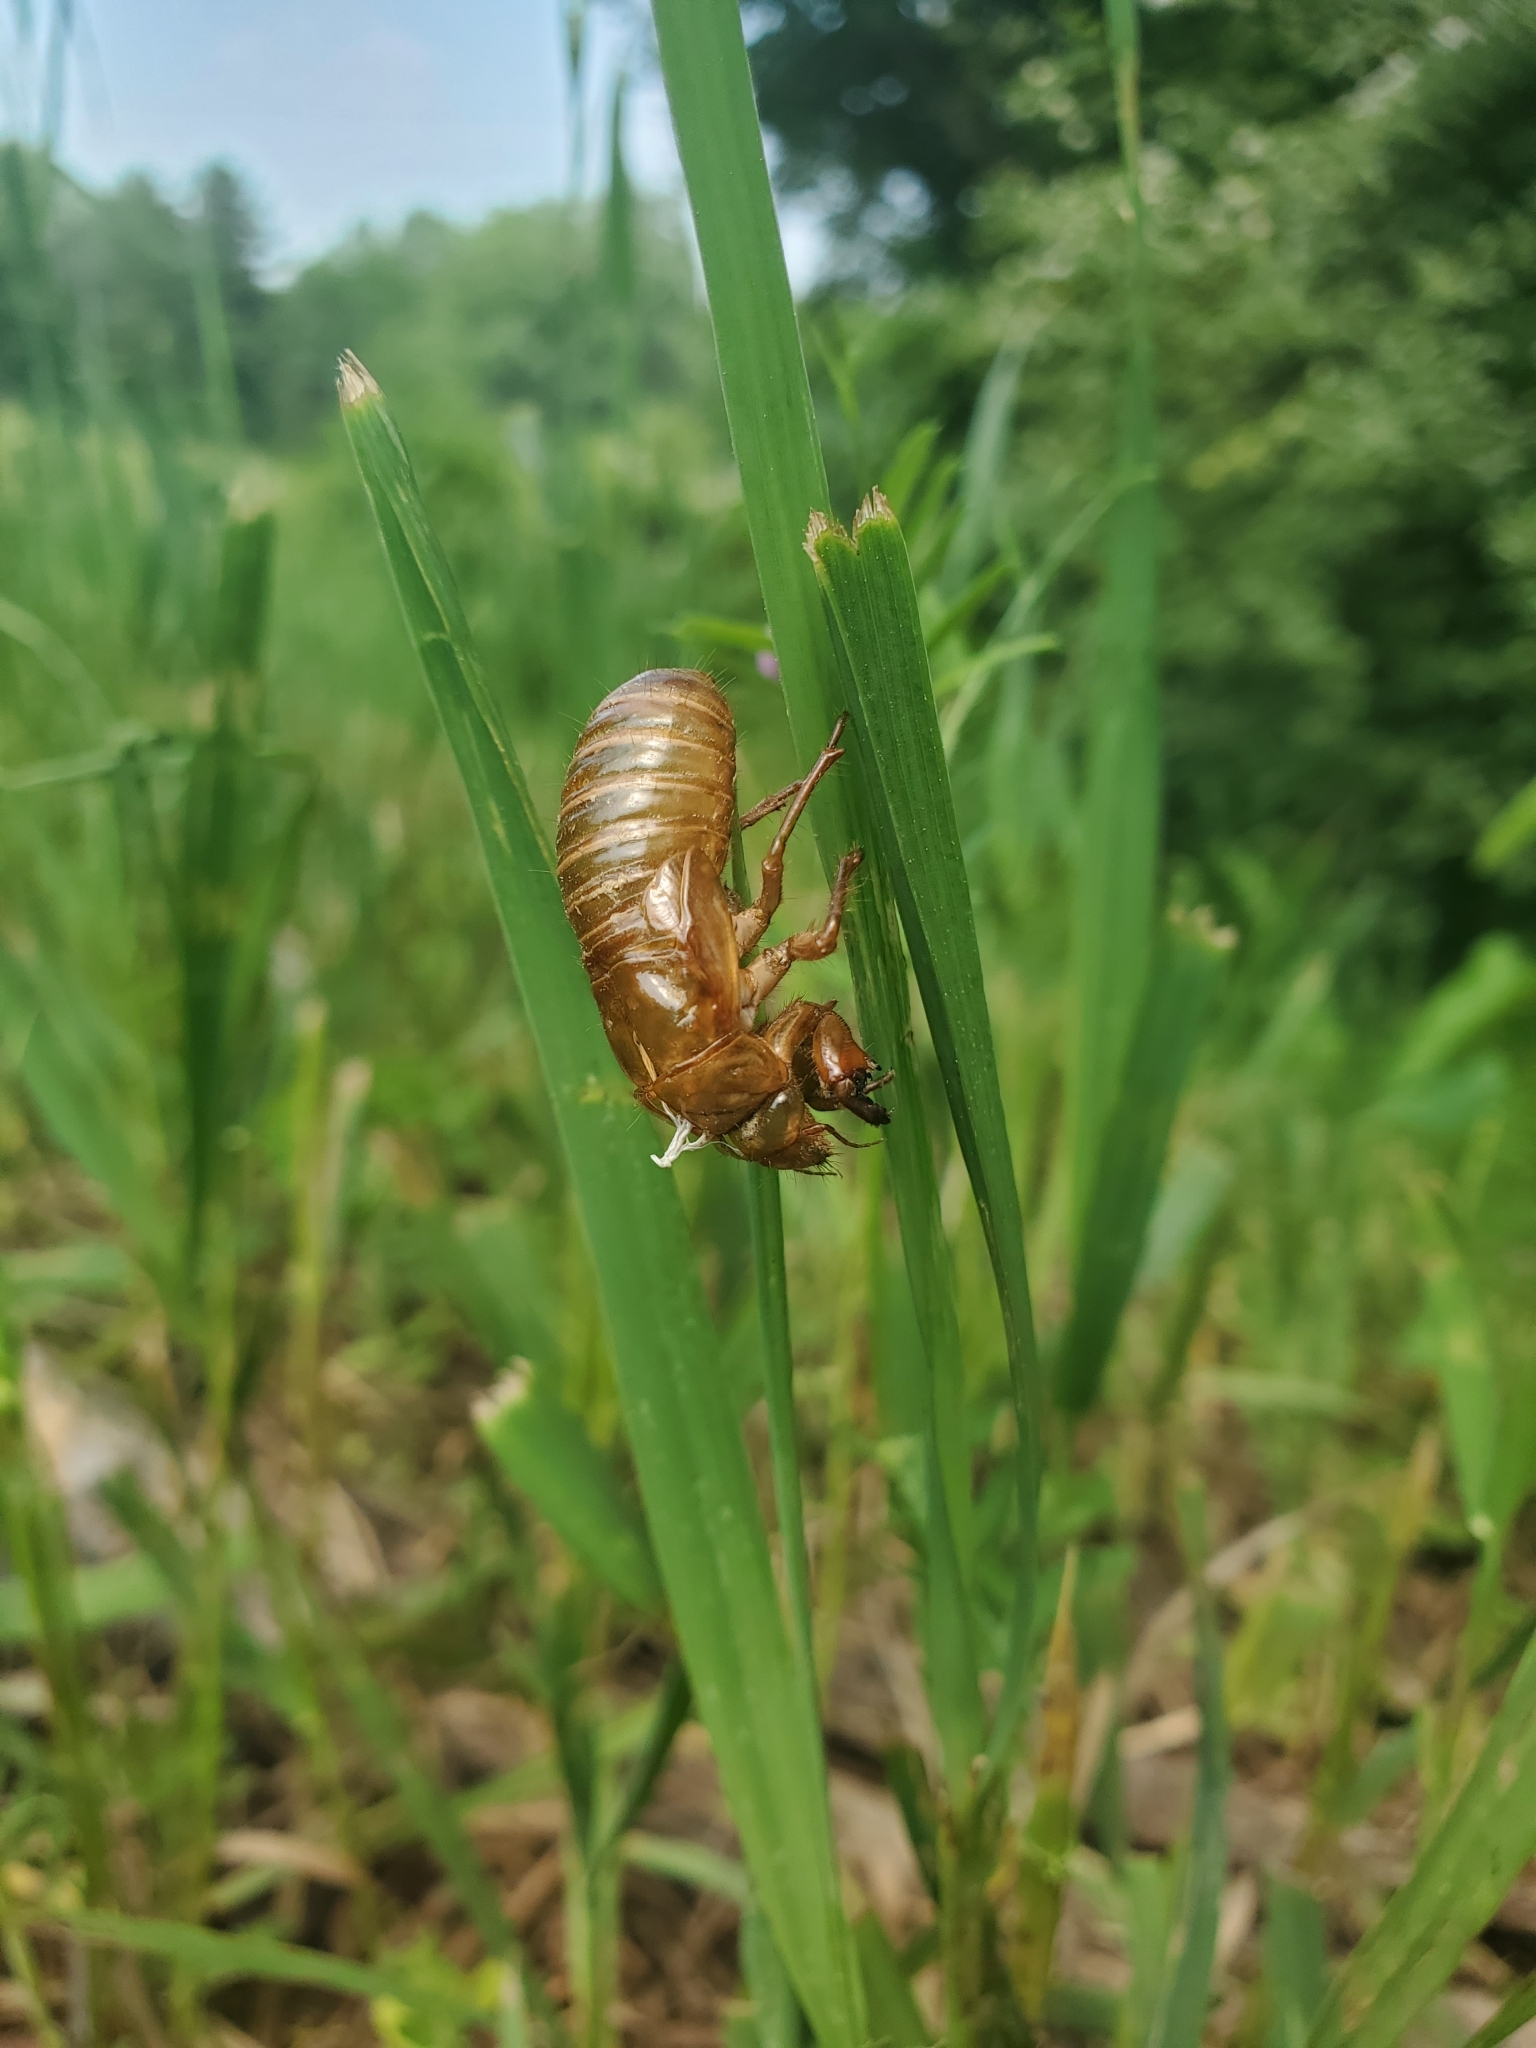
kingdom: Animalia
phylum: Arthropoda
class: Insecta
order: Hemiptera
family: Cicadidae
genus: Magicicada
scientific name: Magicicada
